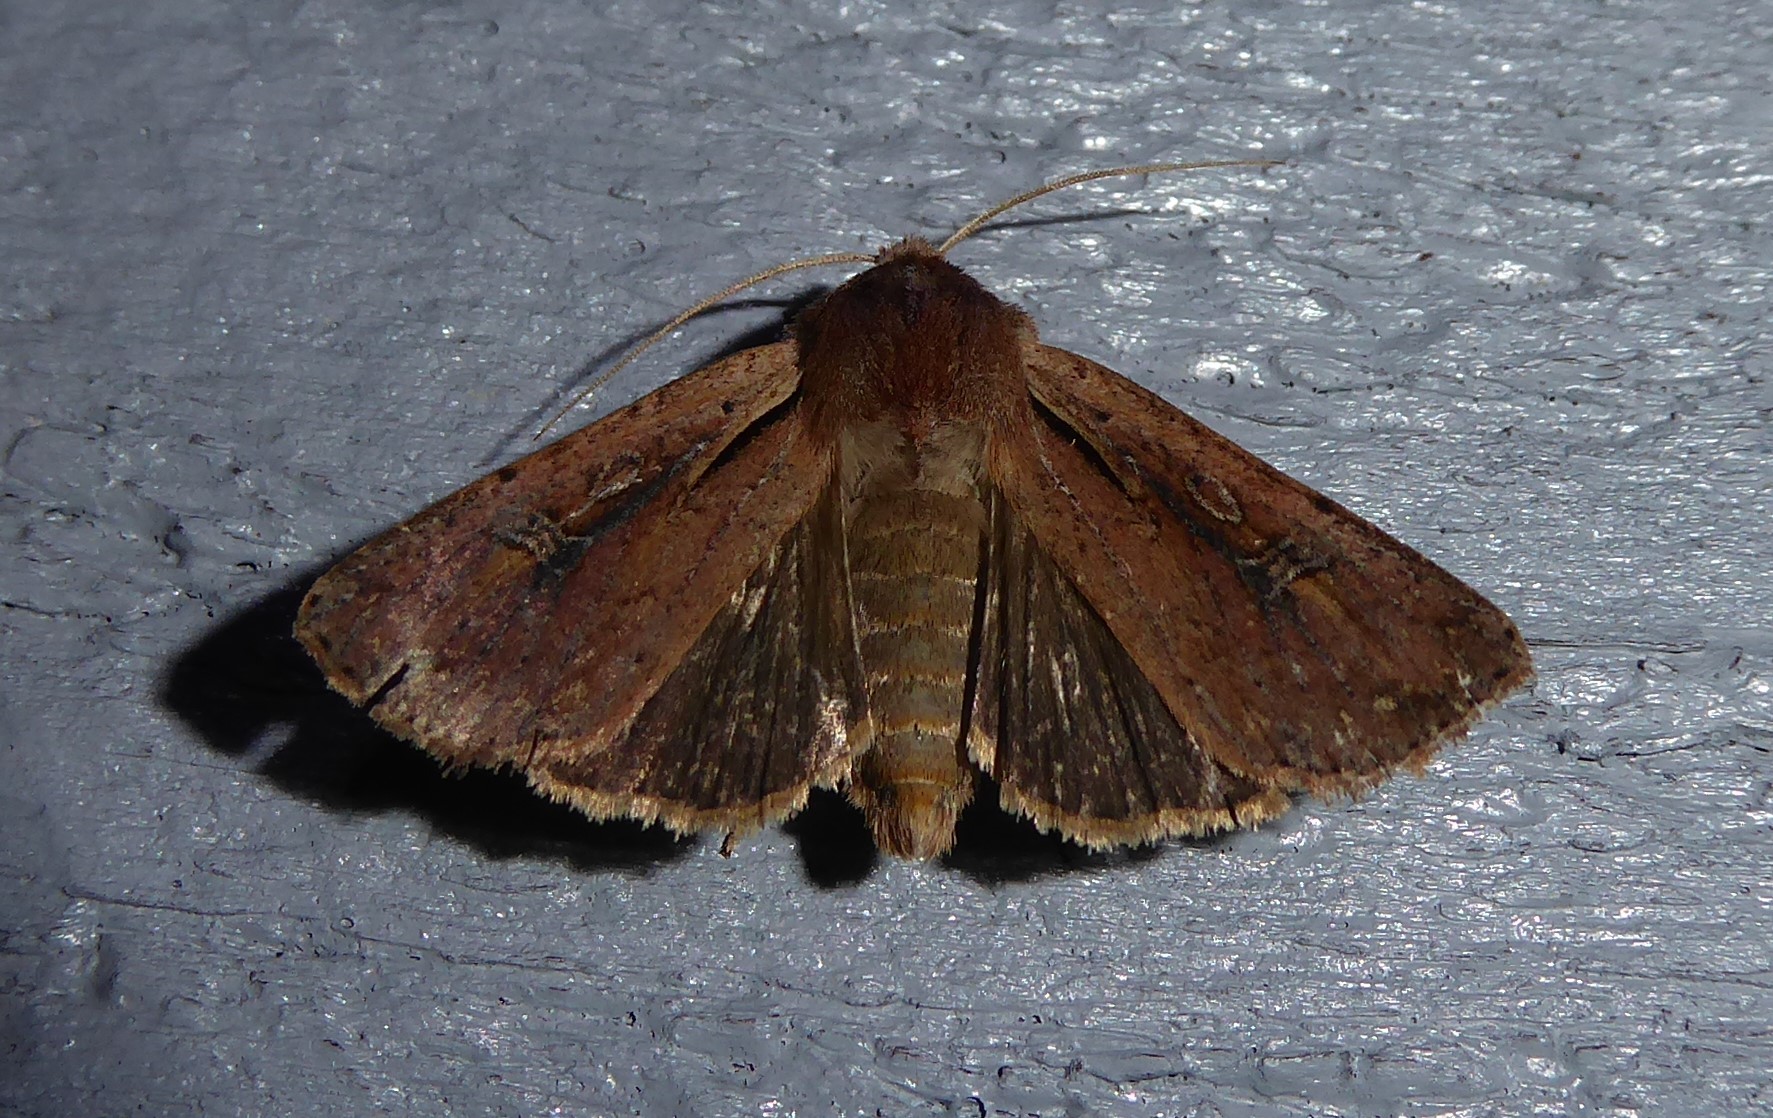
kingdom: Animalia
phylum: Arthropoda
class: Insecta
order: Lepidoptera
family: Noctuidae
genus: Ichneutica
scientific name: Ichneutica atristriga
